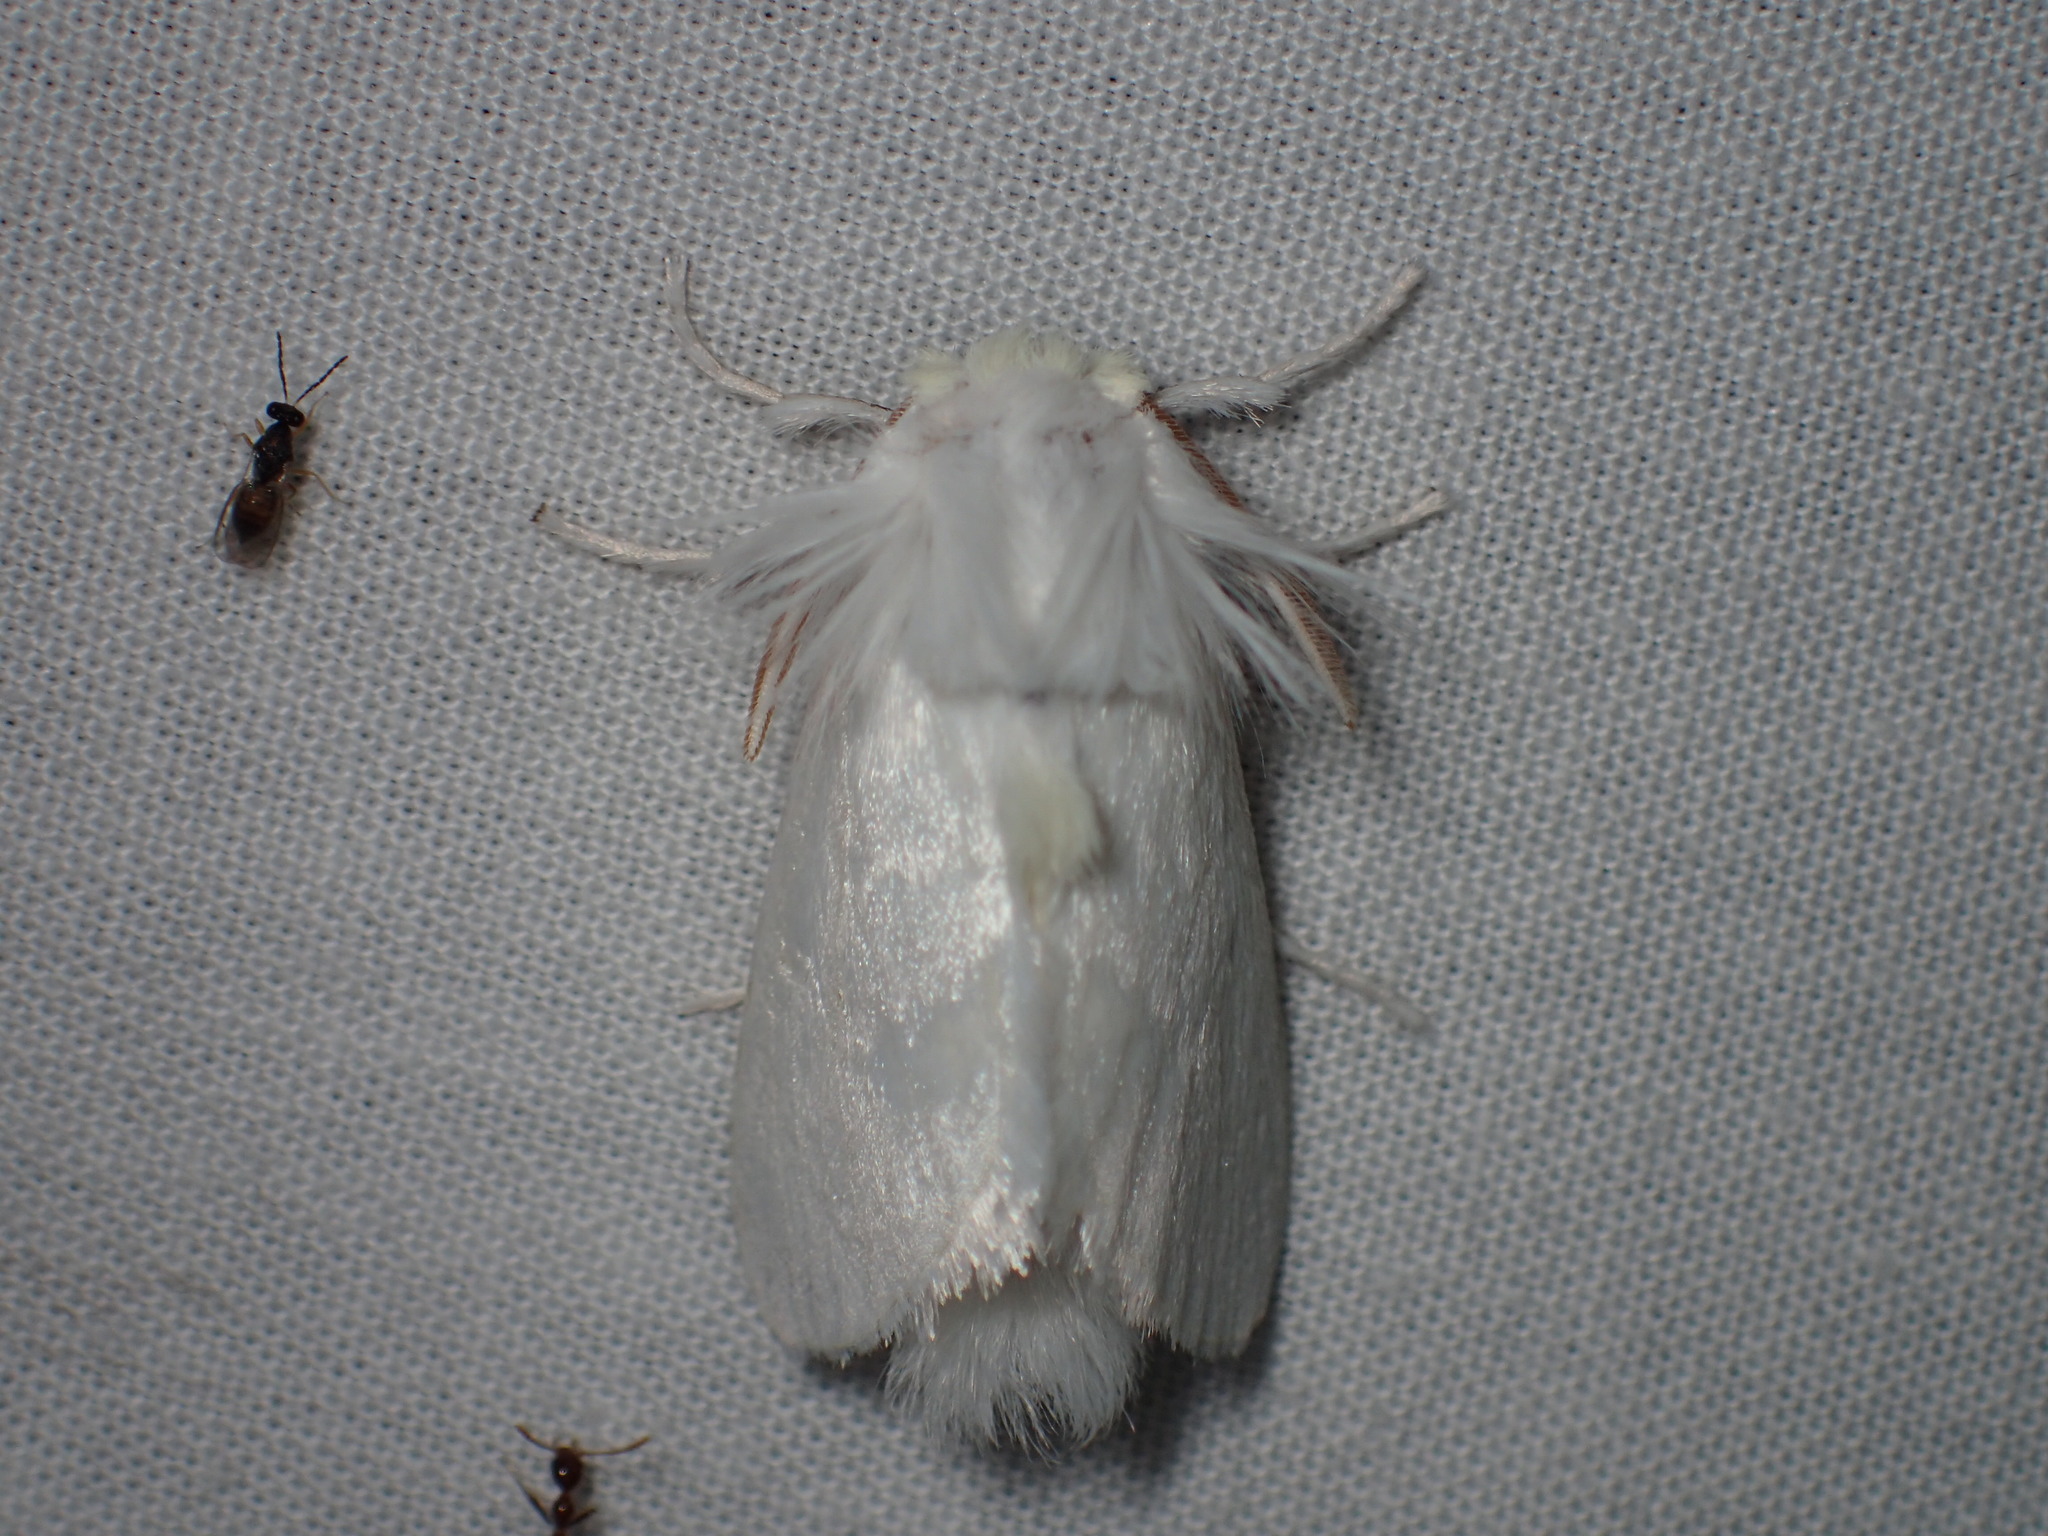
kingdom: Animalia
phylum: Arthropoda
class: Insecta
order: Lepidoptera
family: Megalopygidae
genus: Norape
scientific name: Norape cretata
